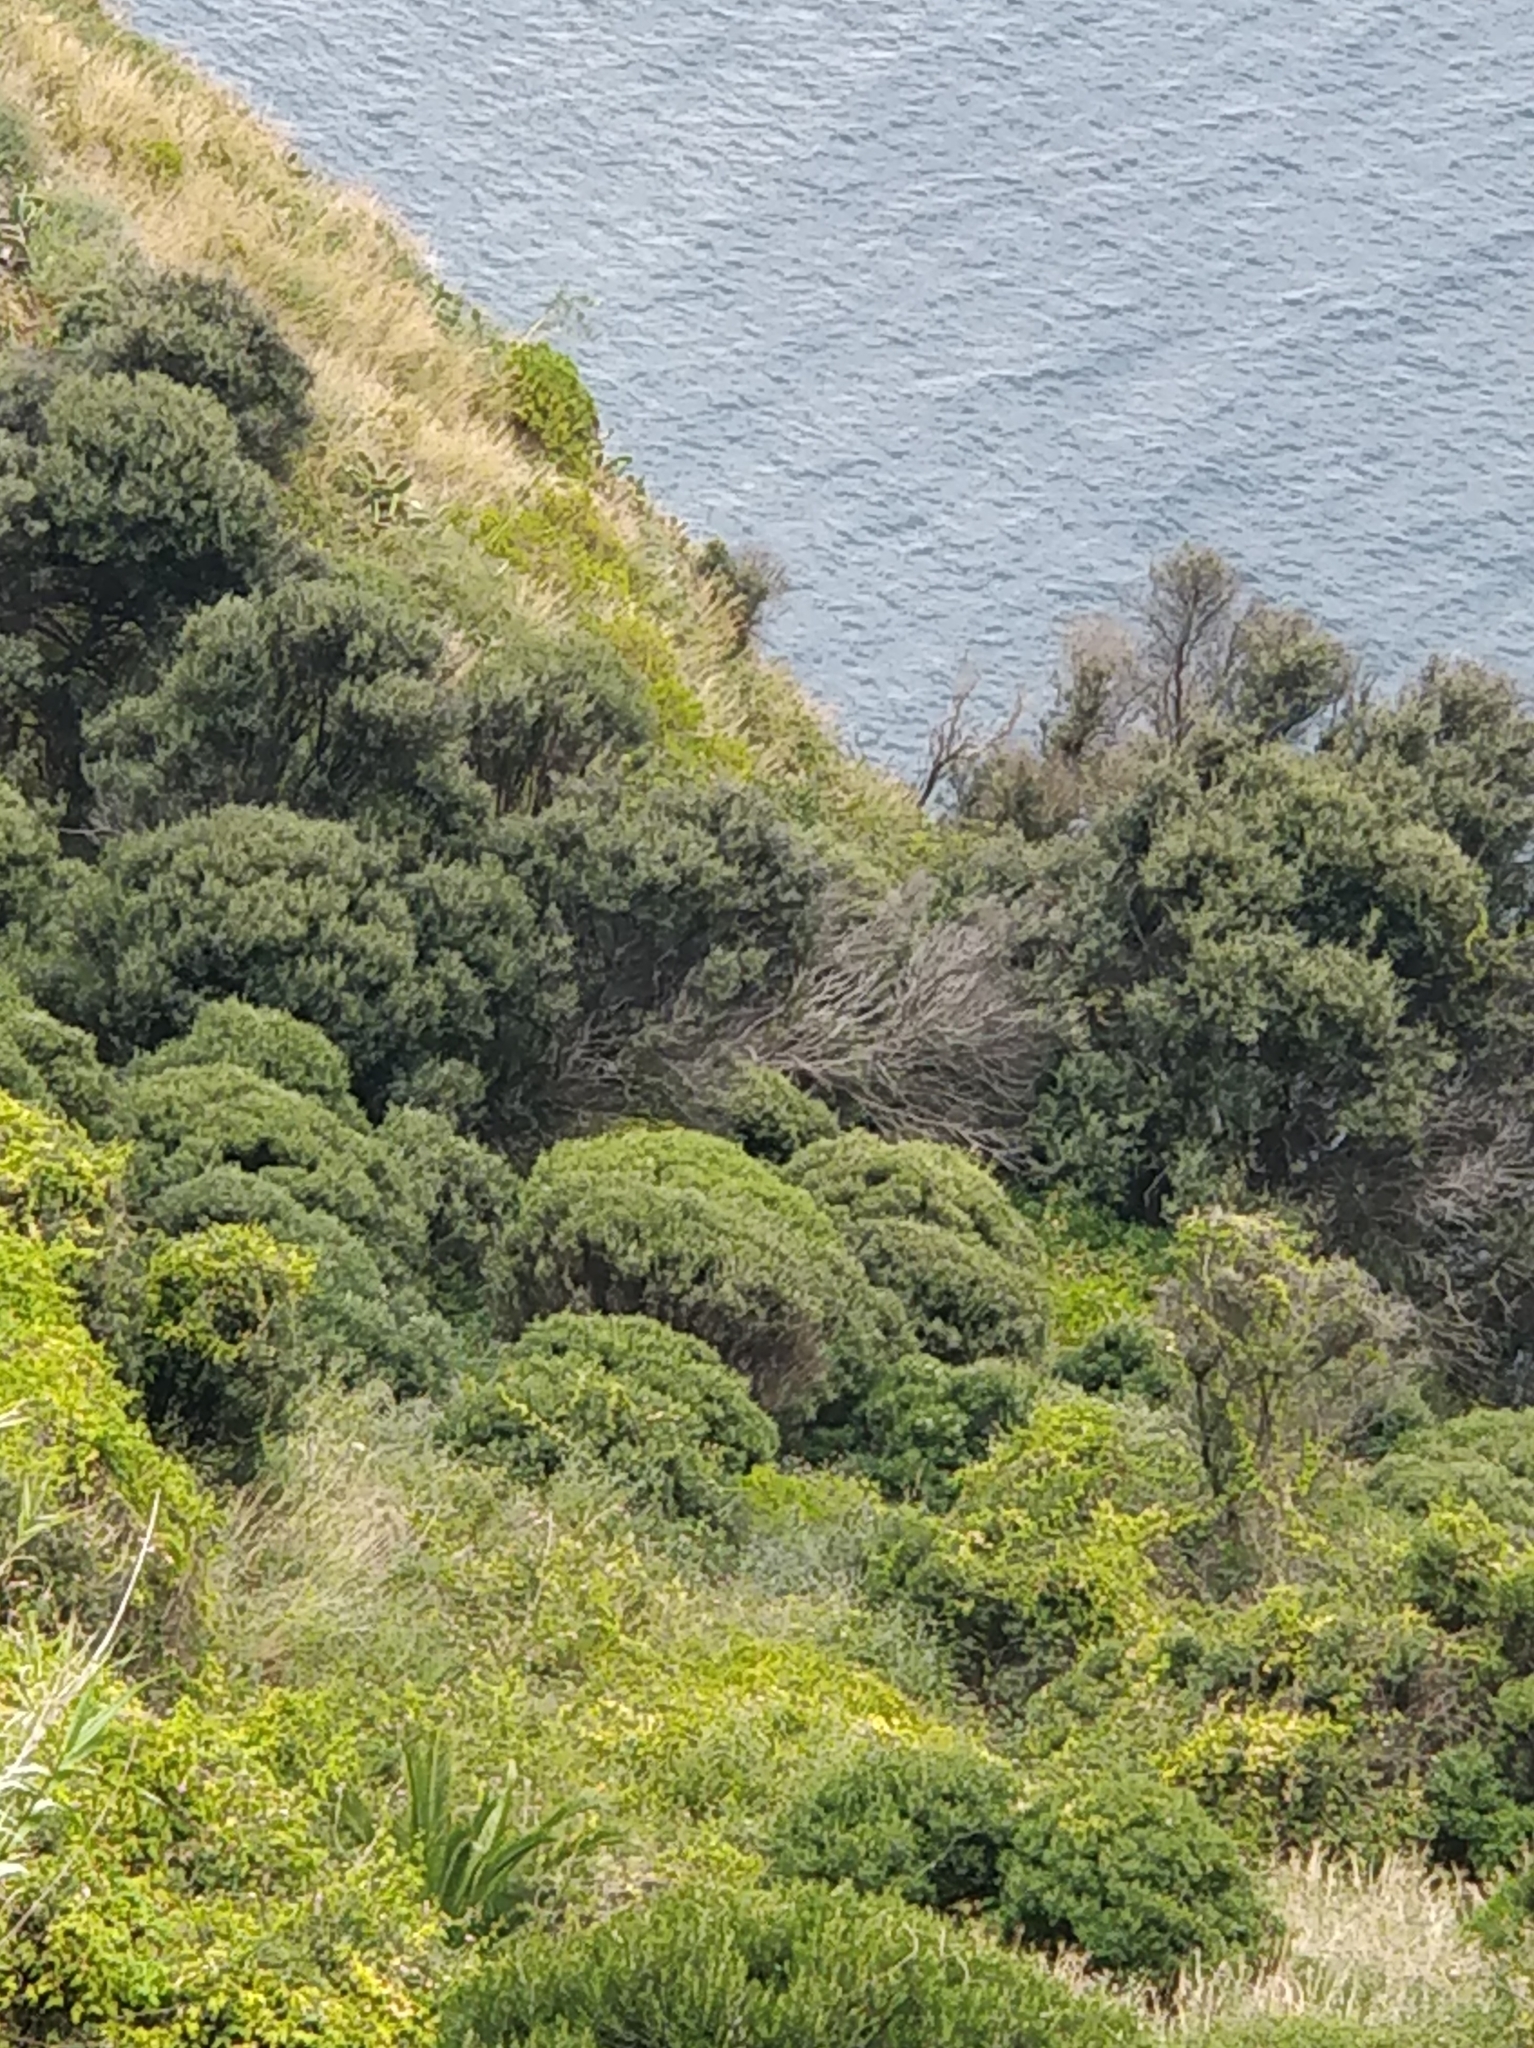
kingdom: Plantae
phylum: Tracheophyta
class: Magnoliopsida
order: Lamiales
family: Oleaceae
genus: Olea
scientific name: Olea europaea
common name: Olive
